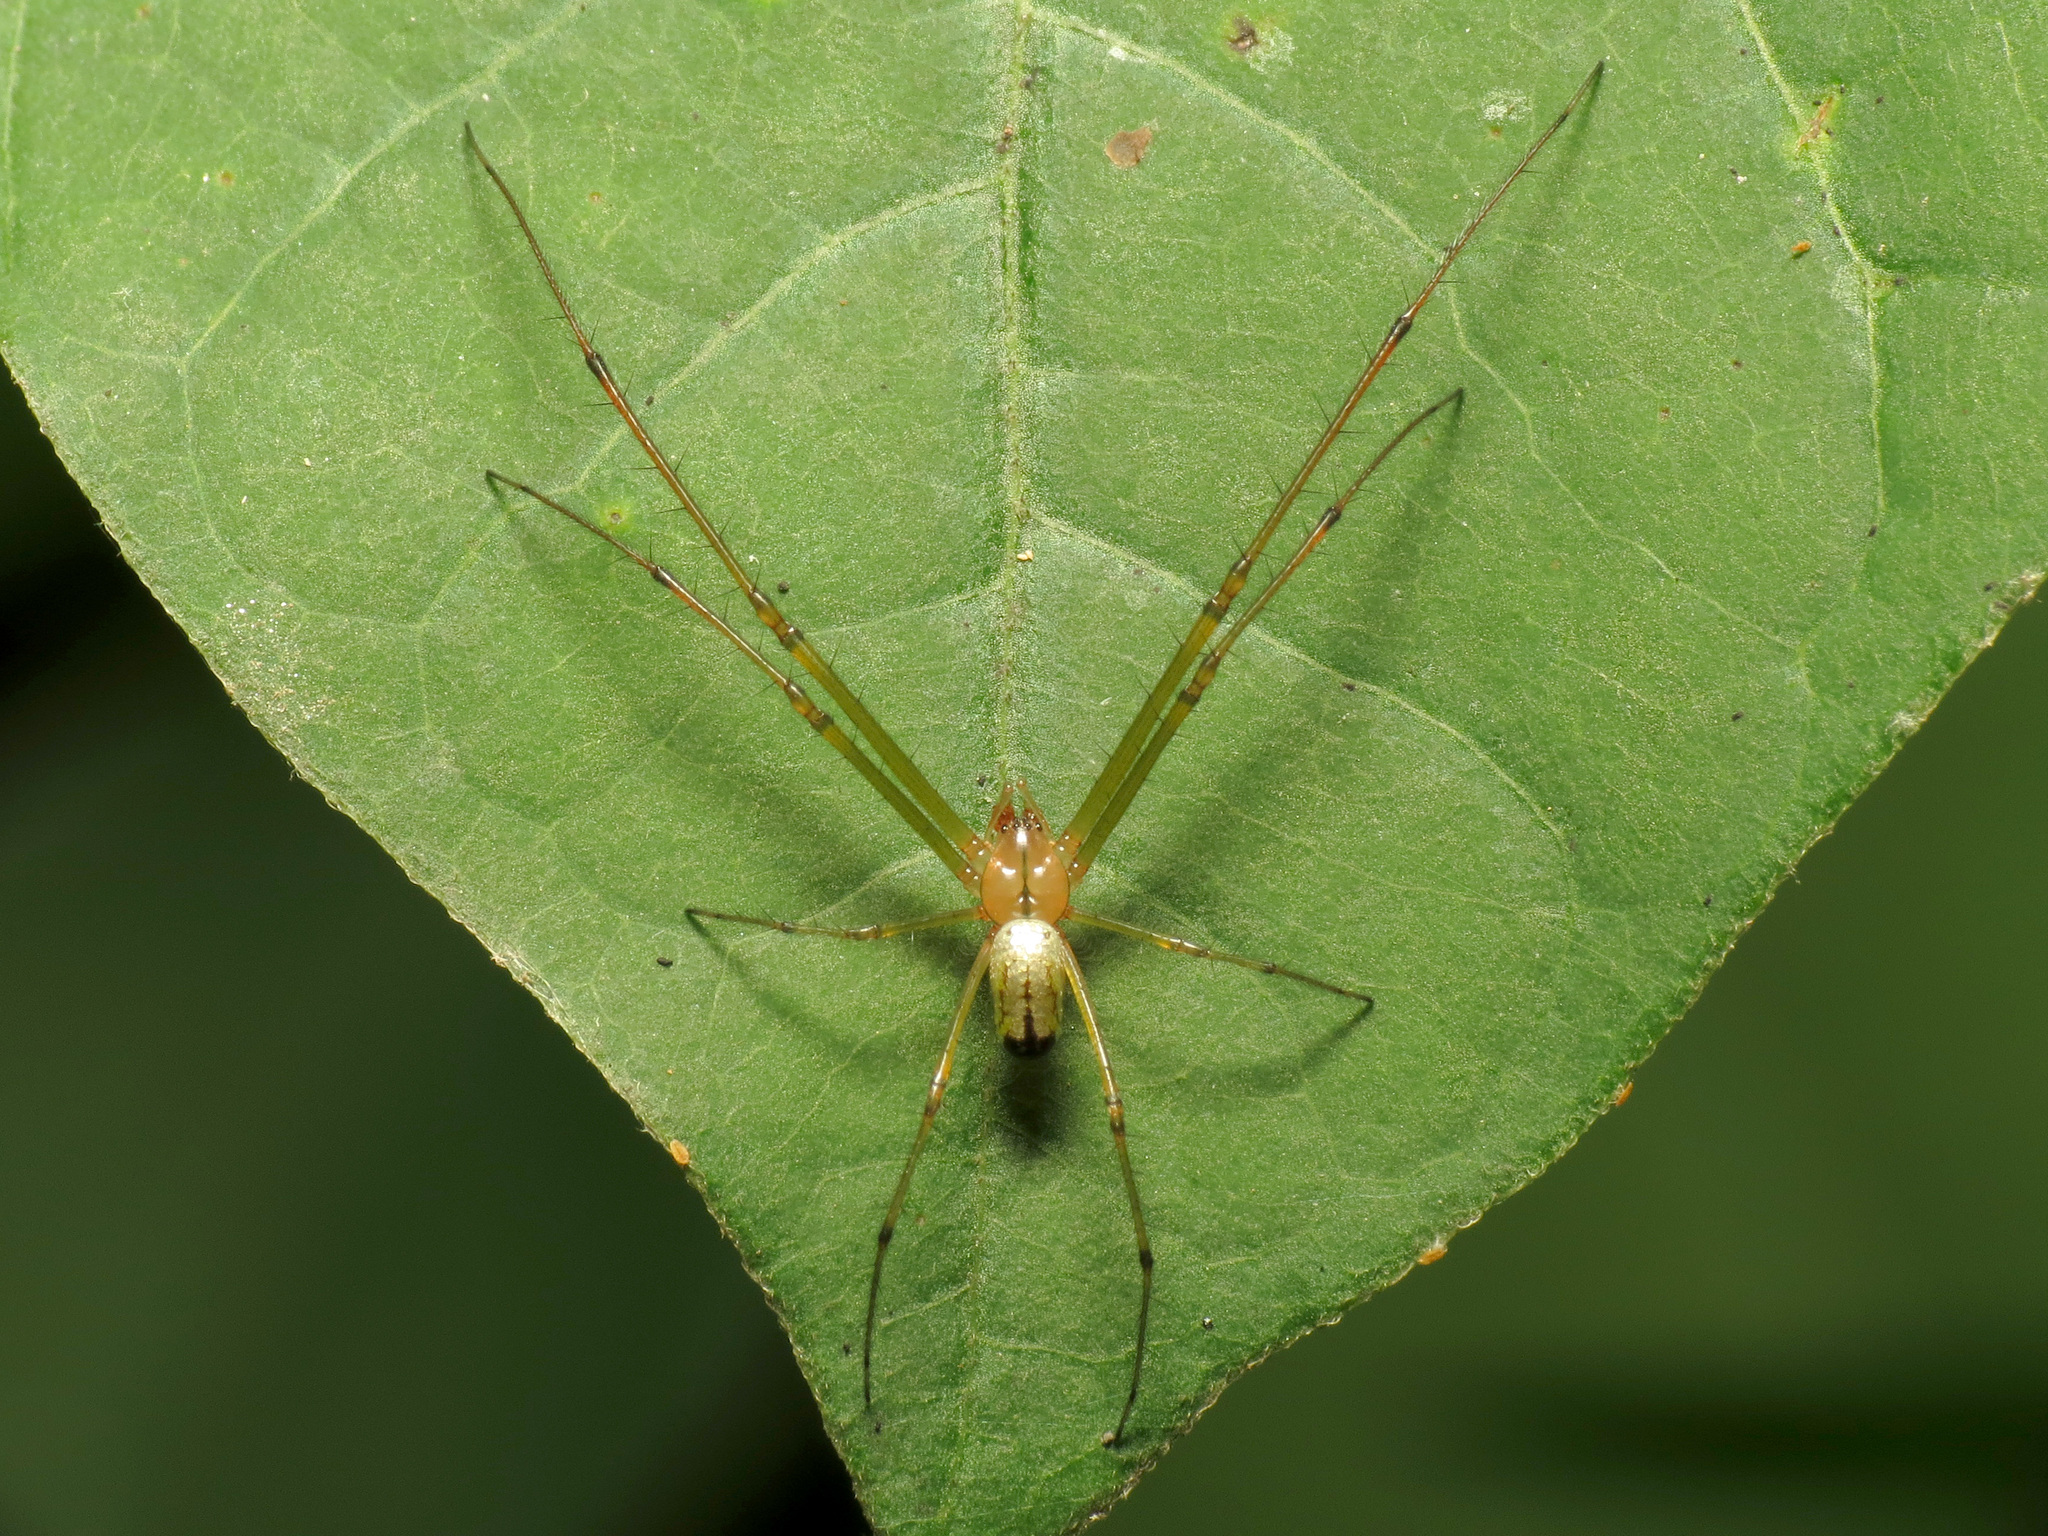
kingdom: Animalia
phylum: Arthropoda
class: Arachnida
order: Araneae
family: Tetragnathidae
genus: Leucauge
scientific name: Leucauge venusta
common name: Longjawed orb weavers
